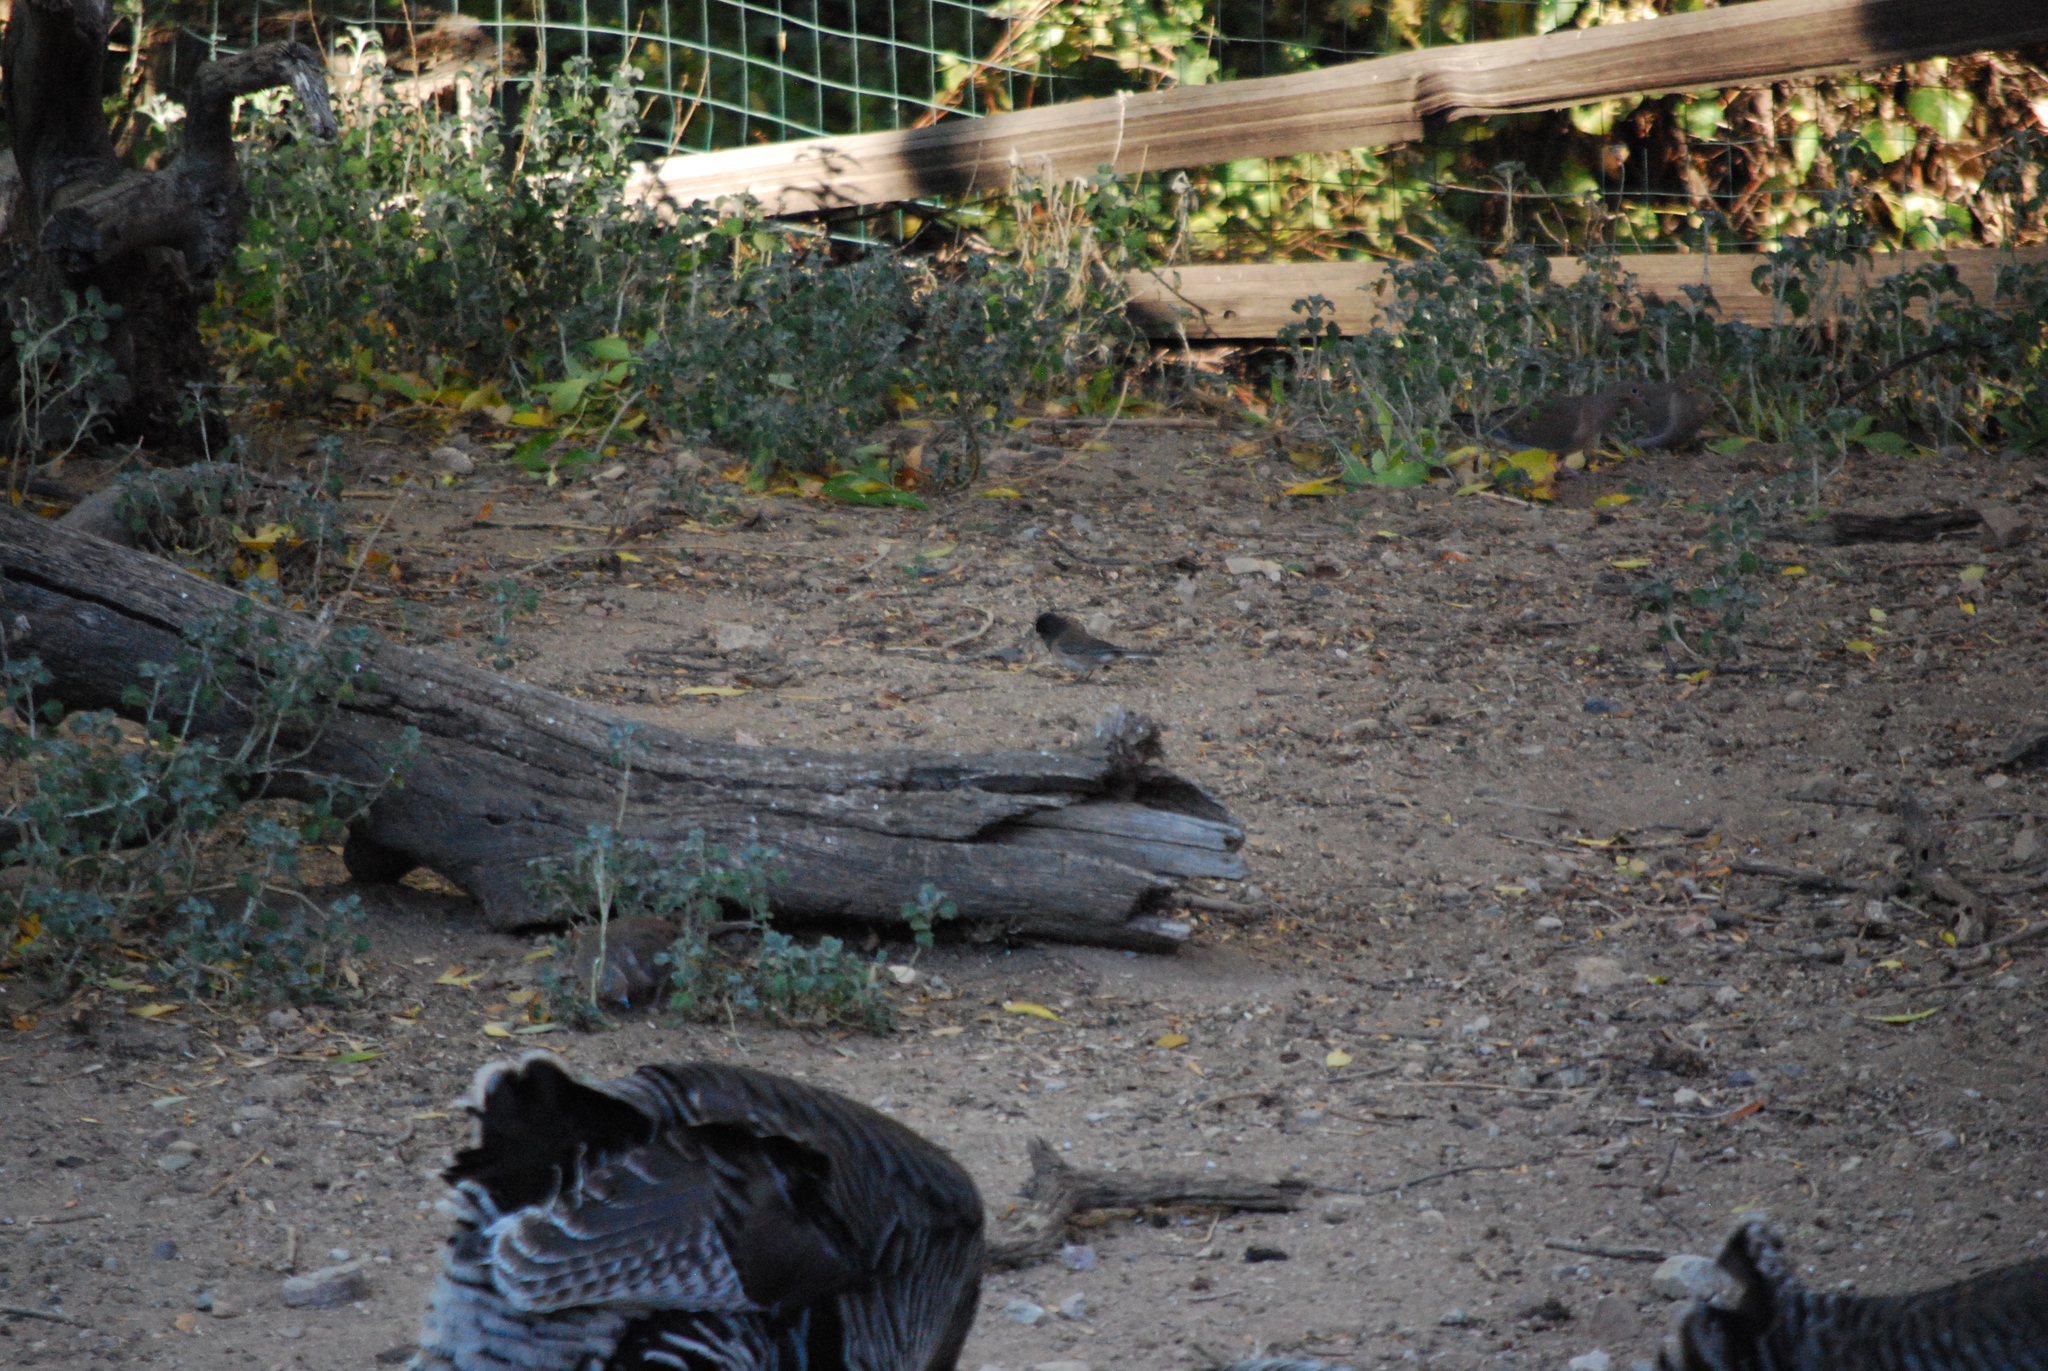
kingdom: Animalia
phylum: Chordata
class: Aves
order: Galliformes
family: Phasianidae
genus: Meleagris
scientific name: Meleagris gallopavo
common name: Wild turkey
